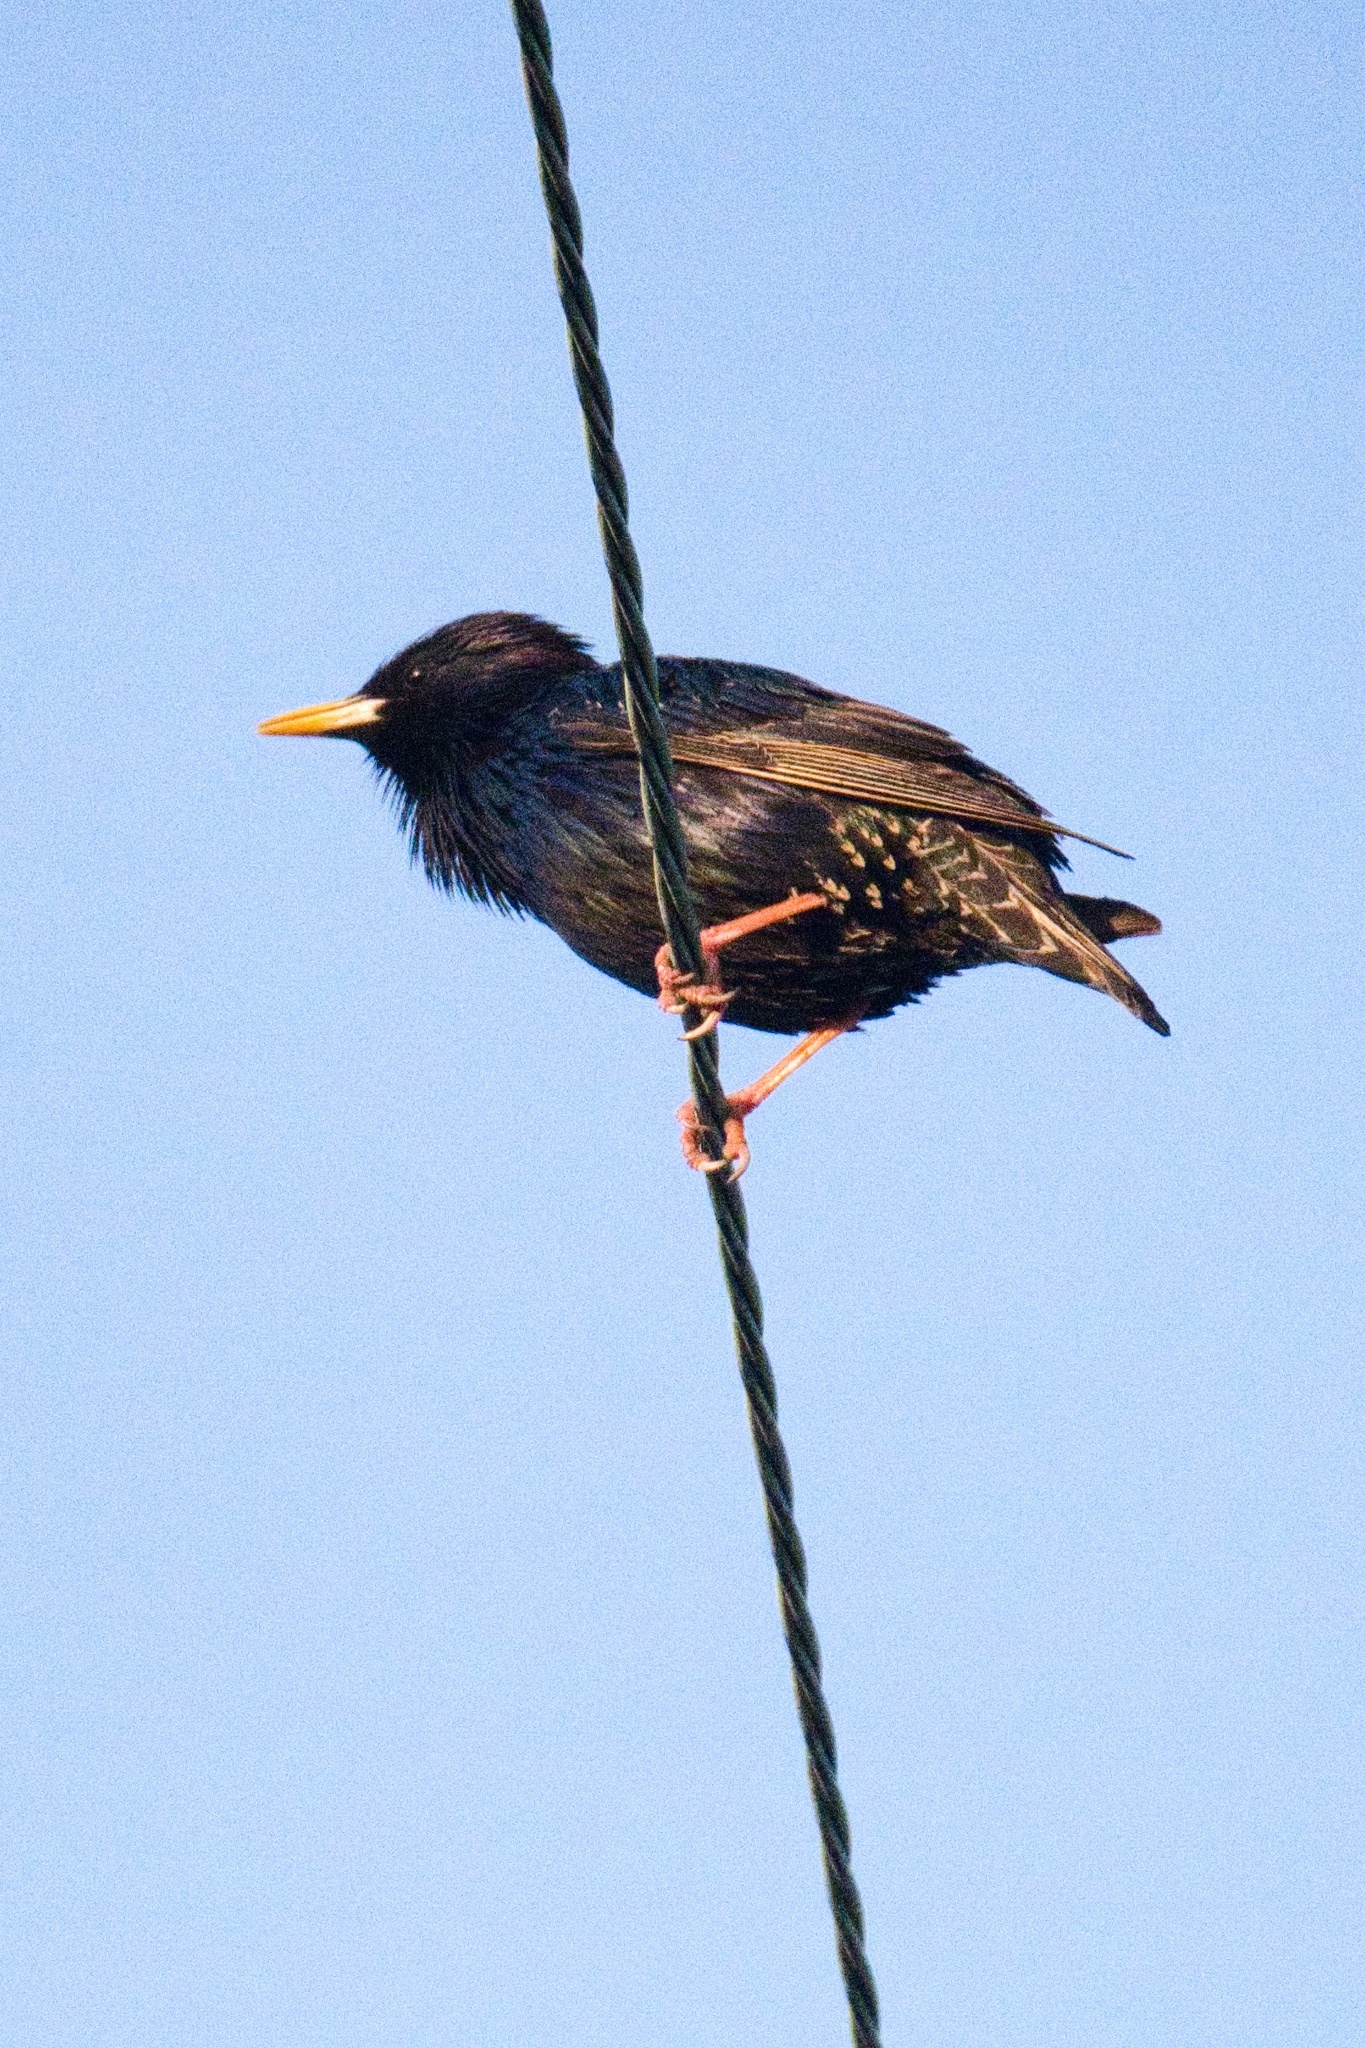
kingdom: Animalia
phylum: Chordata
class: Aves
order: Passeriformes
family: Sturnidae
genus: Sturnus
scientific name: Sturnus vulgaris
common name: Common starling
